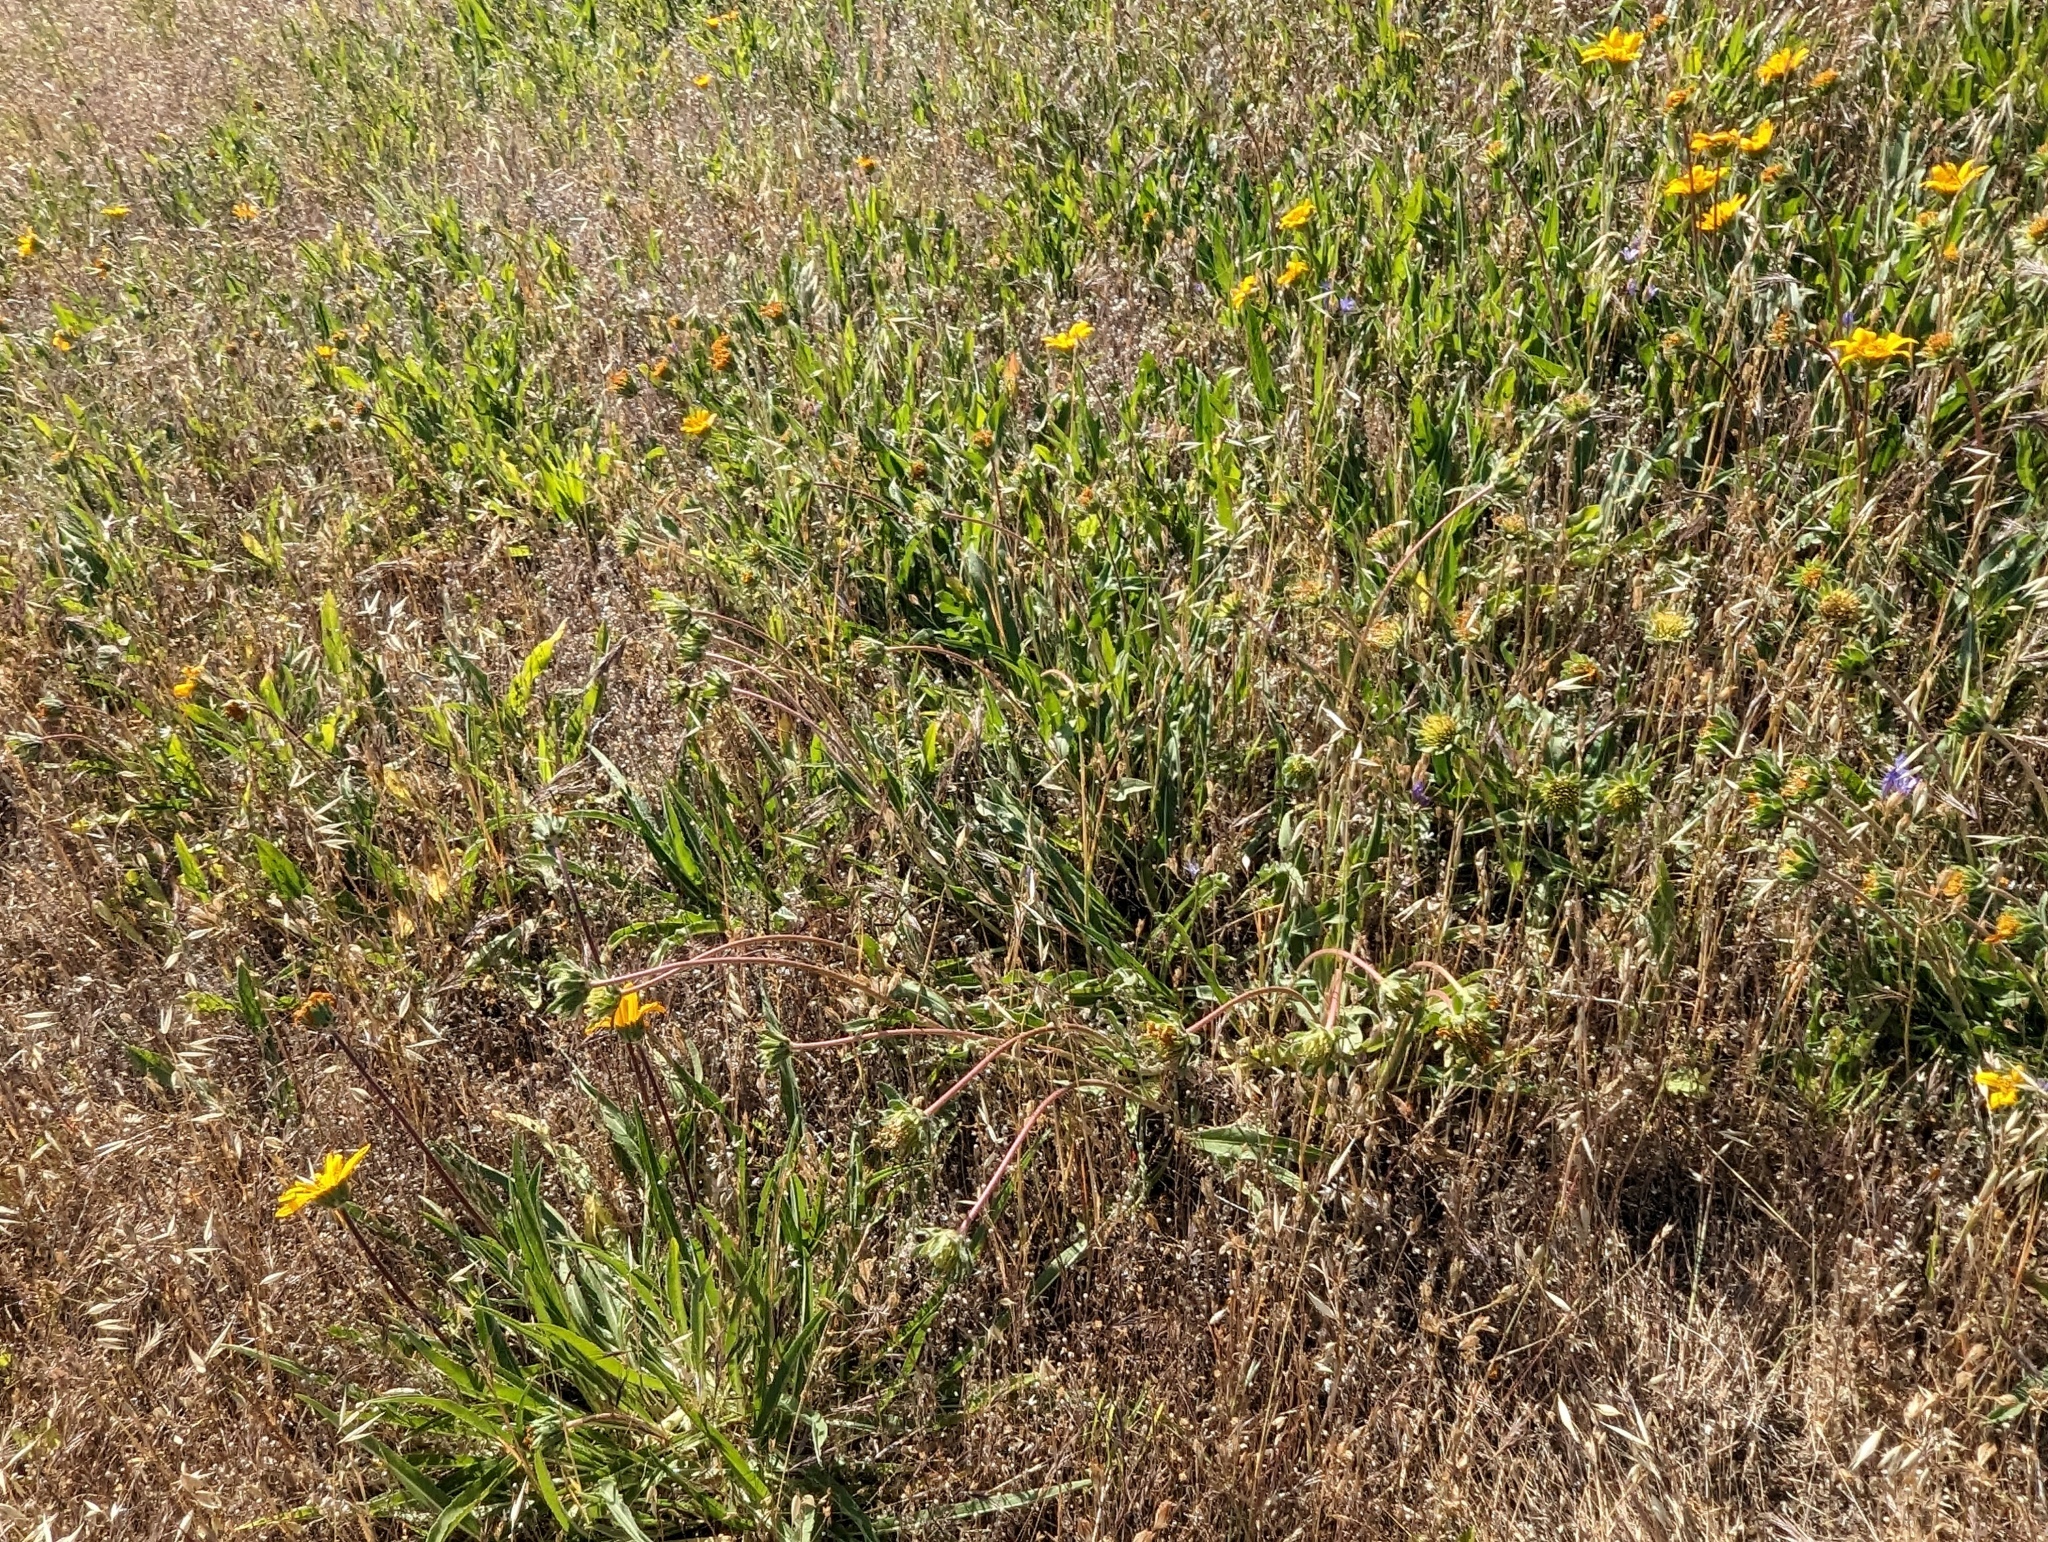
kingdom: Plantae
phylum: Tracheophyta
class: Magnoliopsida
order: Asterales
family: Asteraceae
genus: Wyethia
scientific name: Wyethia angustifolia
